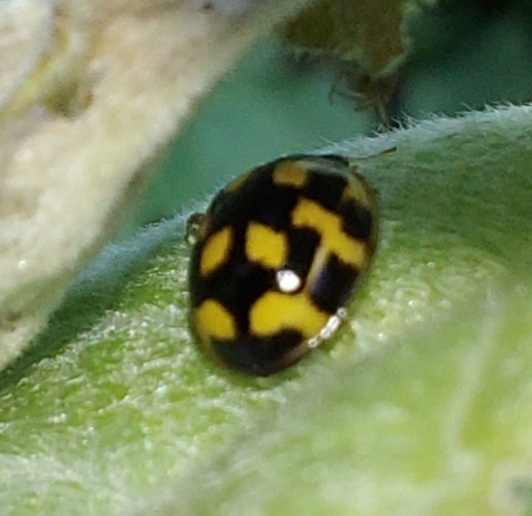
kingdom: Animalia
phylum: Arthropoda
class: Insecta
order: Coleoptera
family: Coccinellidae
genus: Propylaea
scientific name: Propylaea quatuordecimpunctata
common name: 14-spotted ladybird beetle
